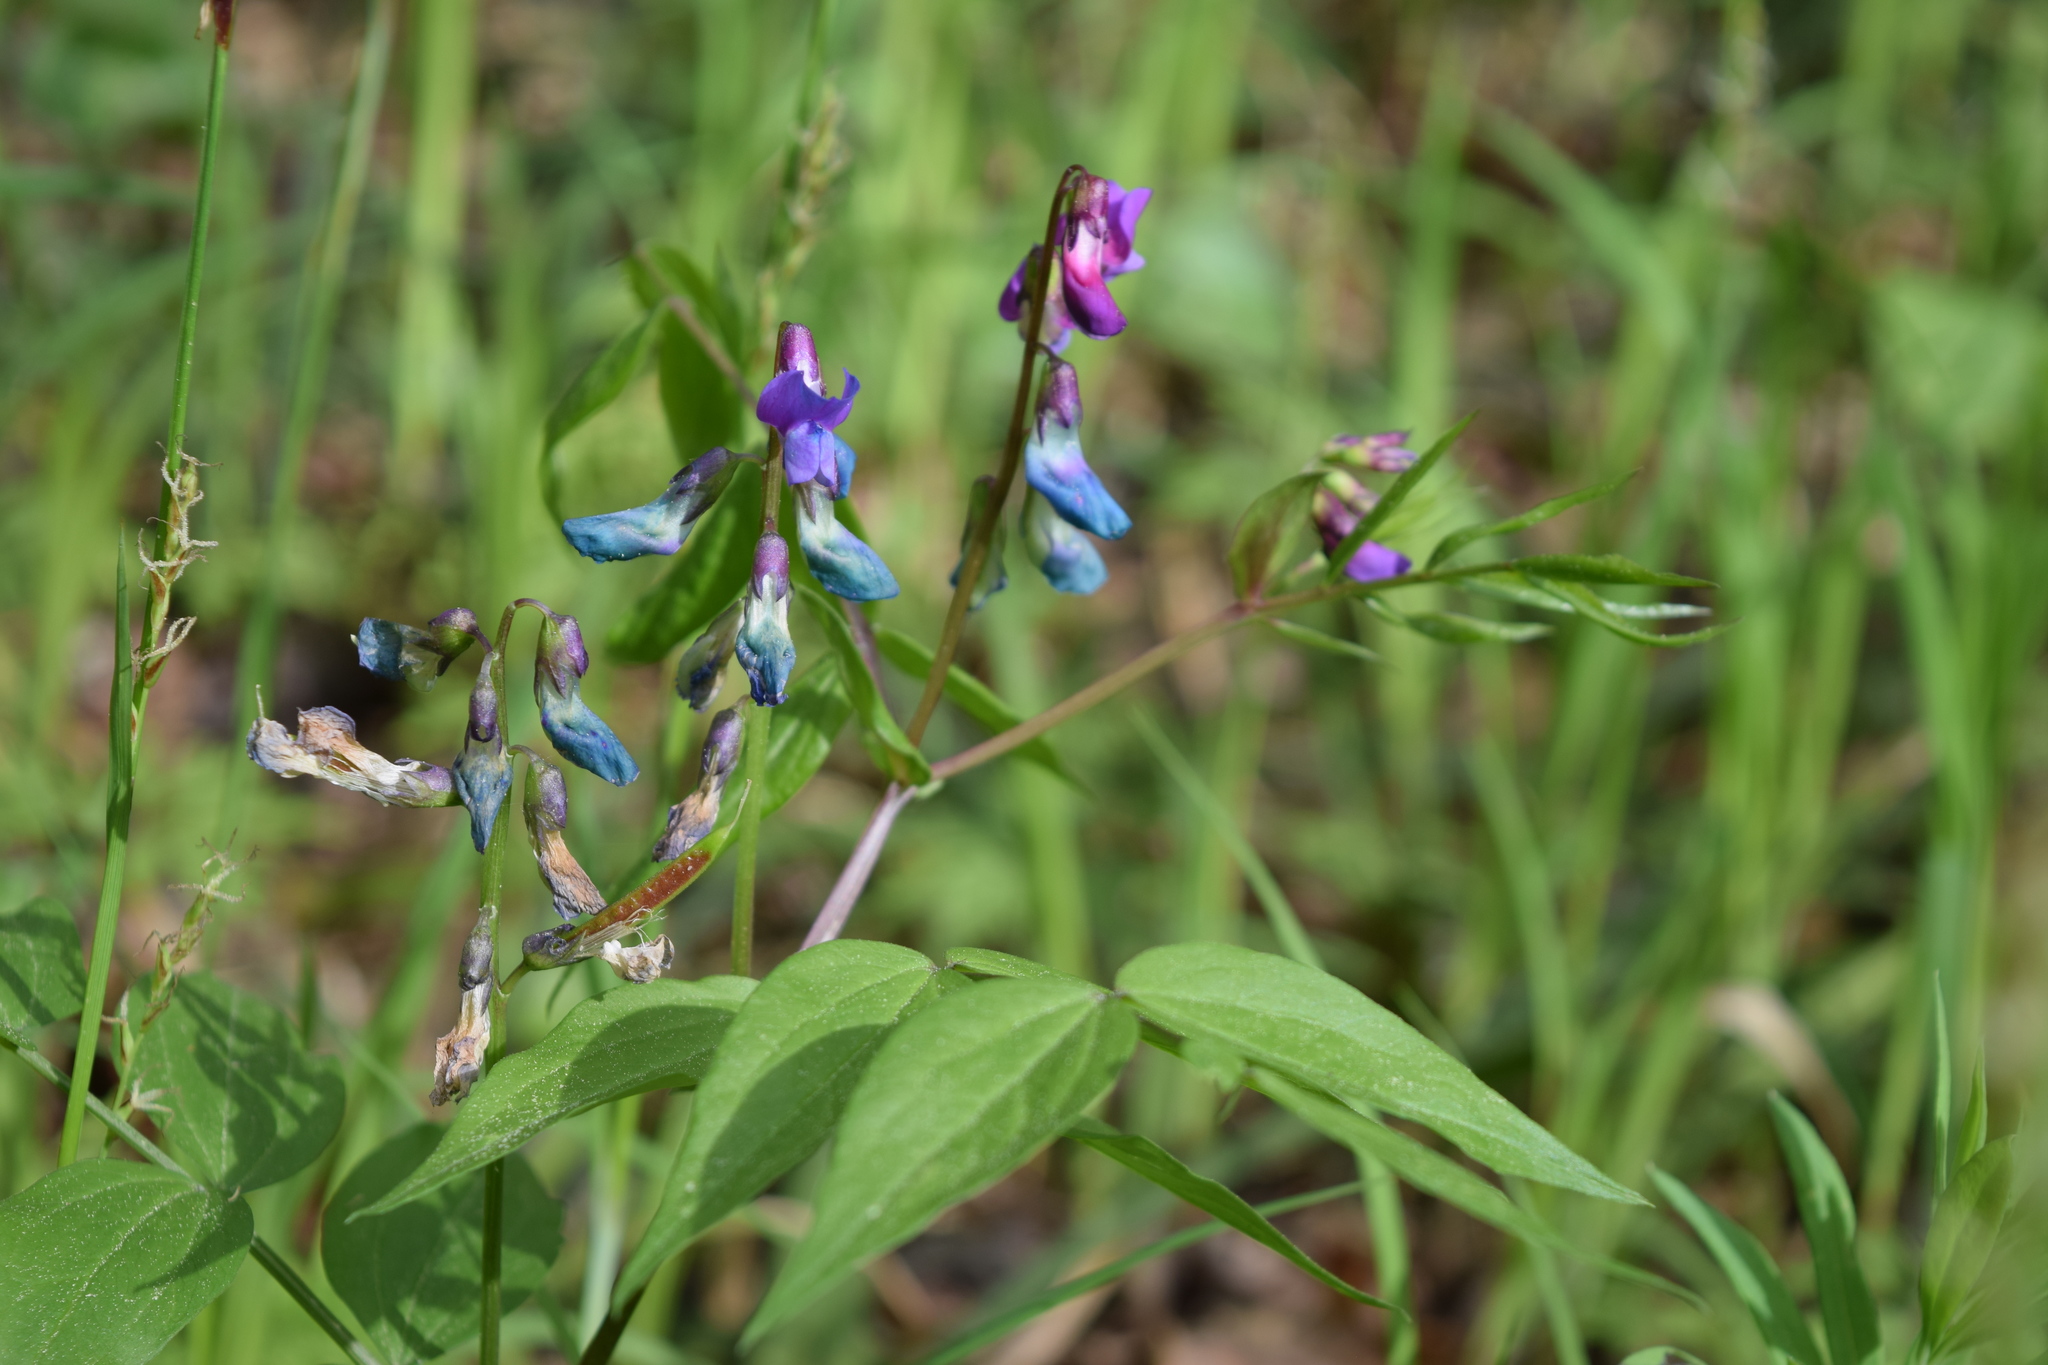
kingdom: Plantae
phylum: Tracheophyta
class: Magnoliopsida
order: Fabales
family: Fabaceae
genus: Lathyrus
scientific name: Lathyrus vernus
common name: Spring pea
